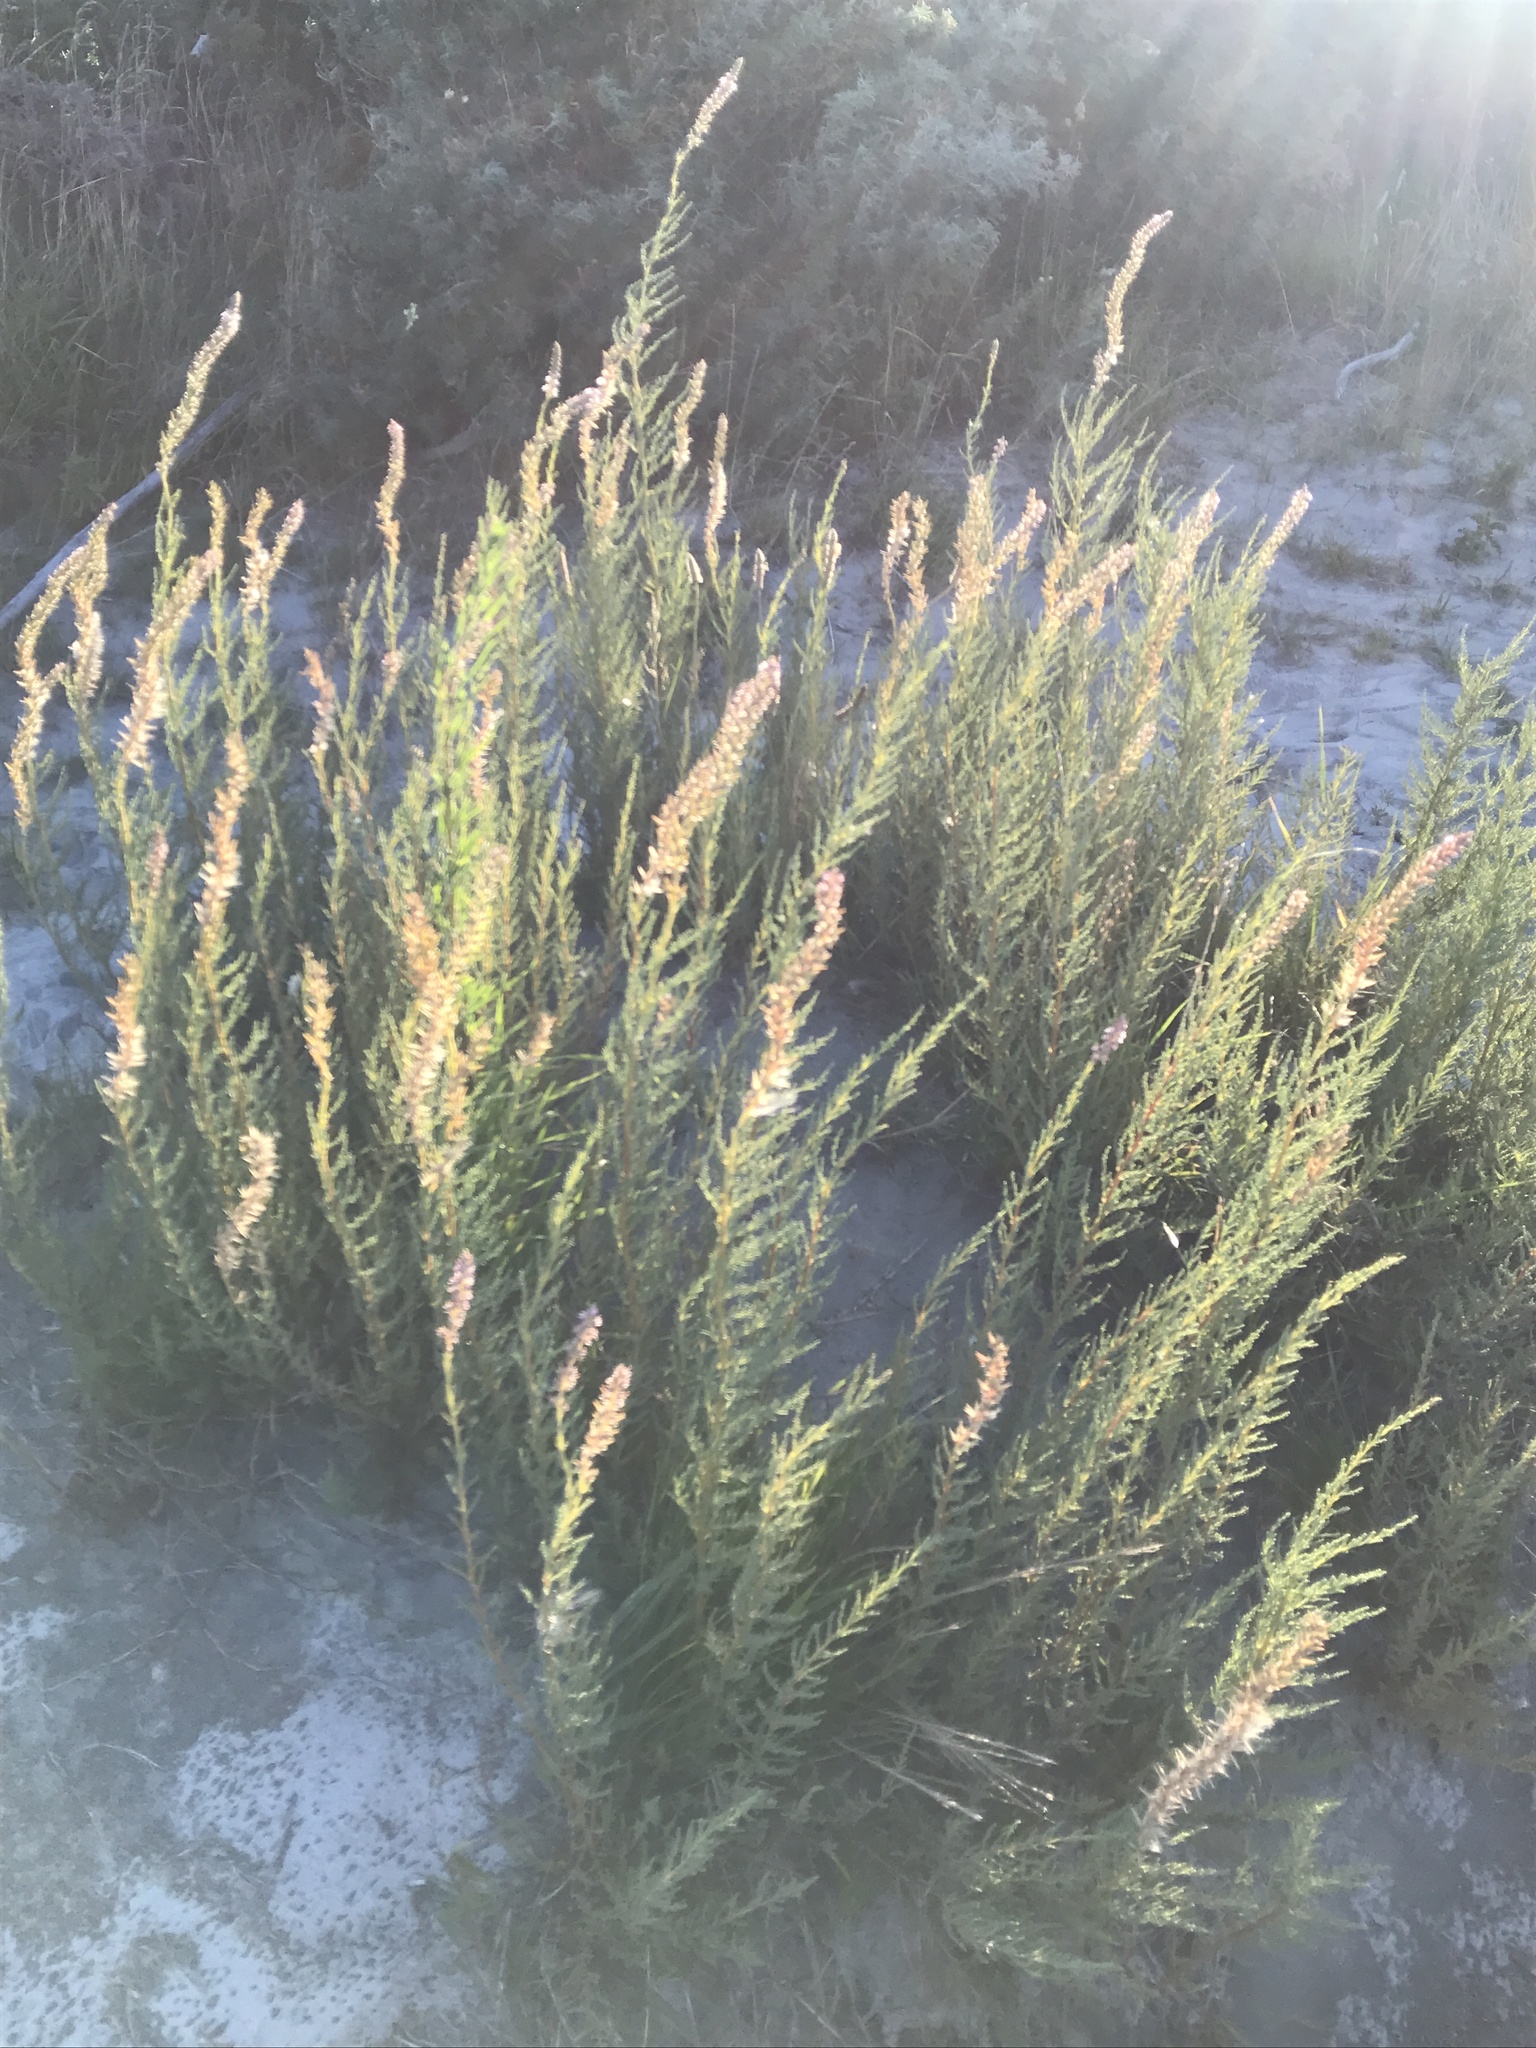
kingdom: Plantae
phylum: Tracheophyta
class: Magnoliopsida
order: Caryophyllales
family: Tamaricaceae
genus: Myricaria
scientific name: Myricaria germanica
